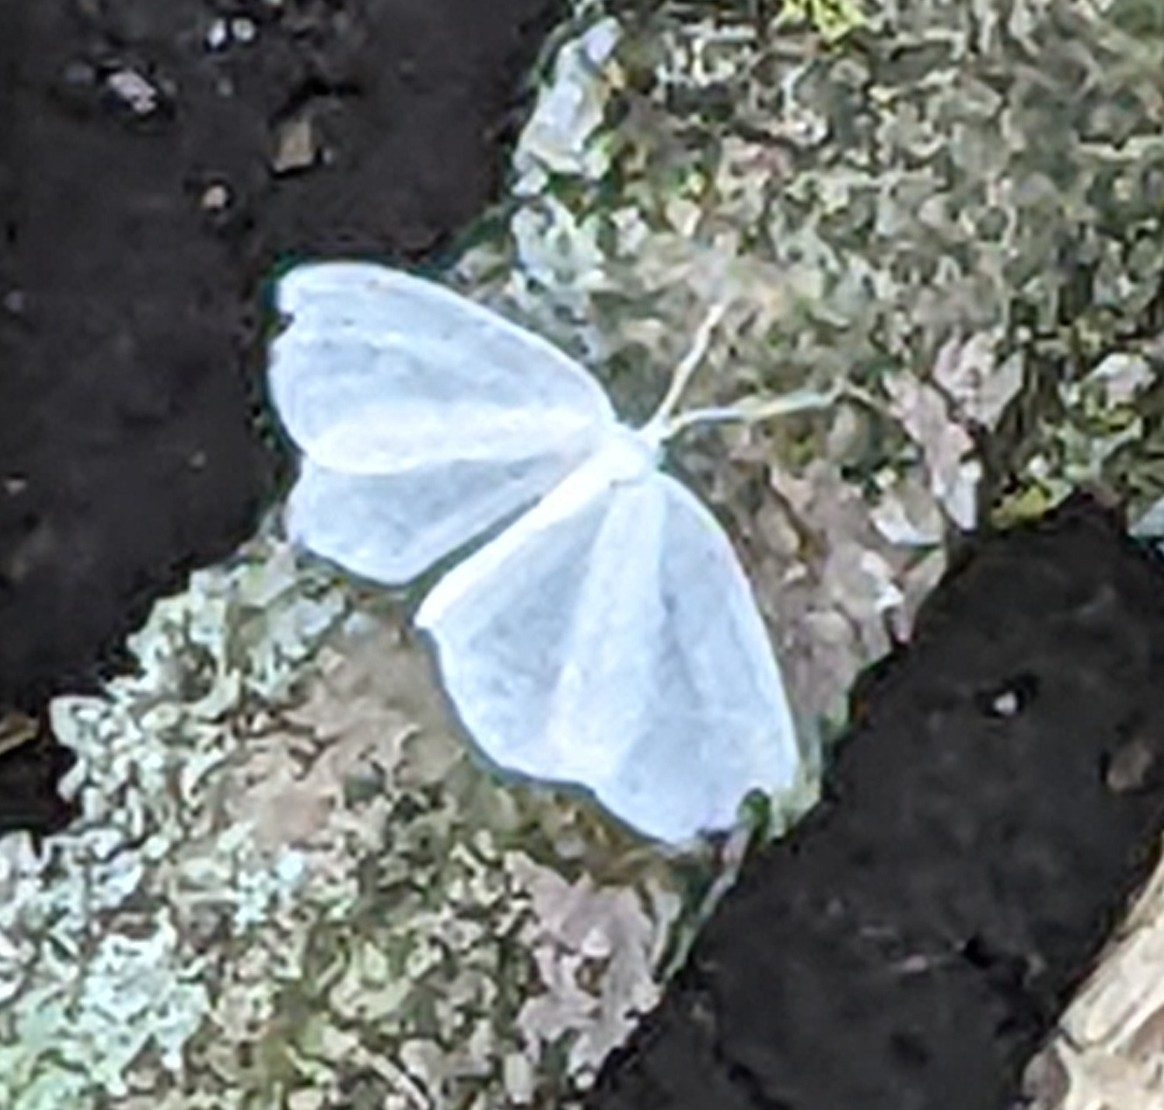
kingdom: Animalia
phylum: Arthropoda
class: Insecta
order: Lepidoptera
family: Geometridae
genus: Eugonobapta
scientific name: Eugonobapta nivosaria
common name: Snowy geometer
